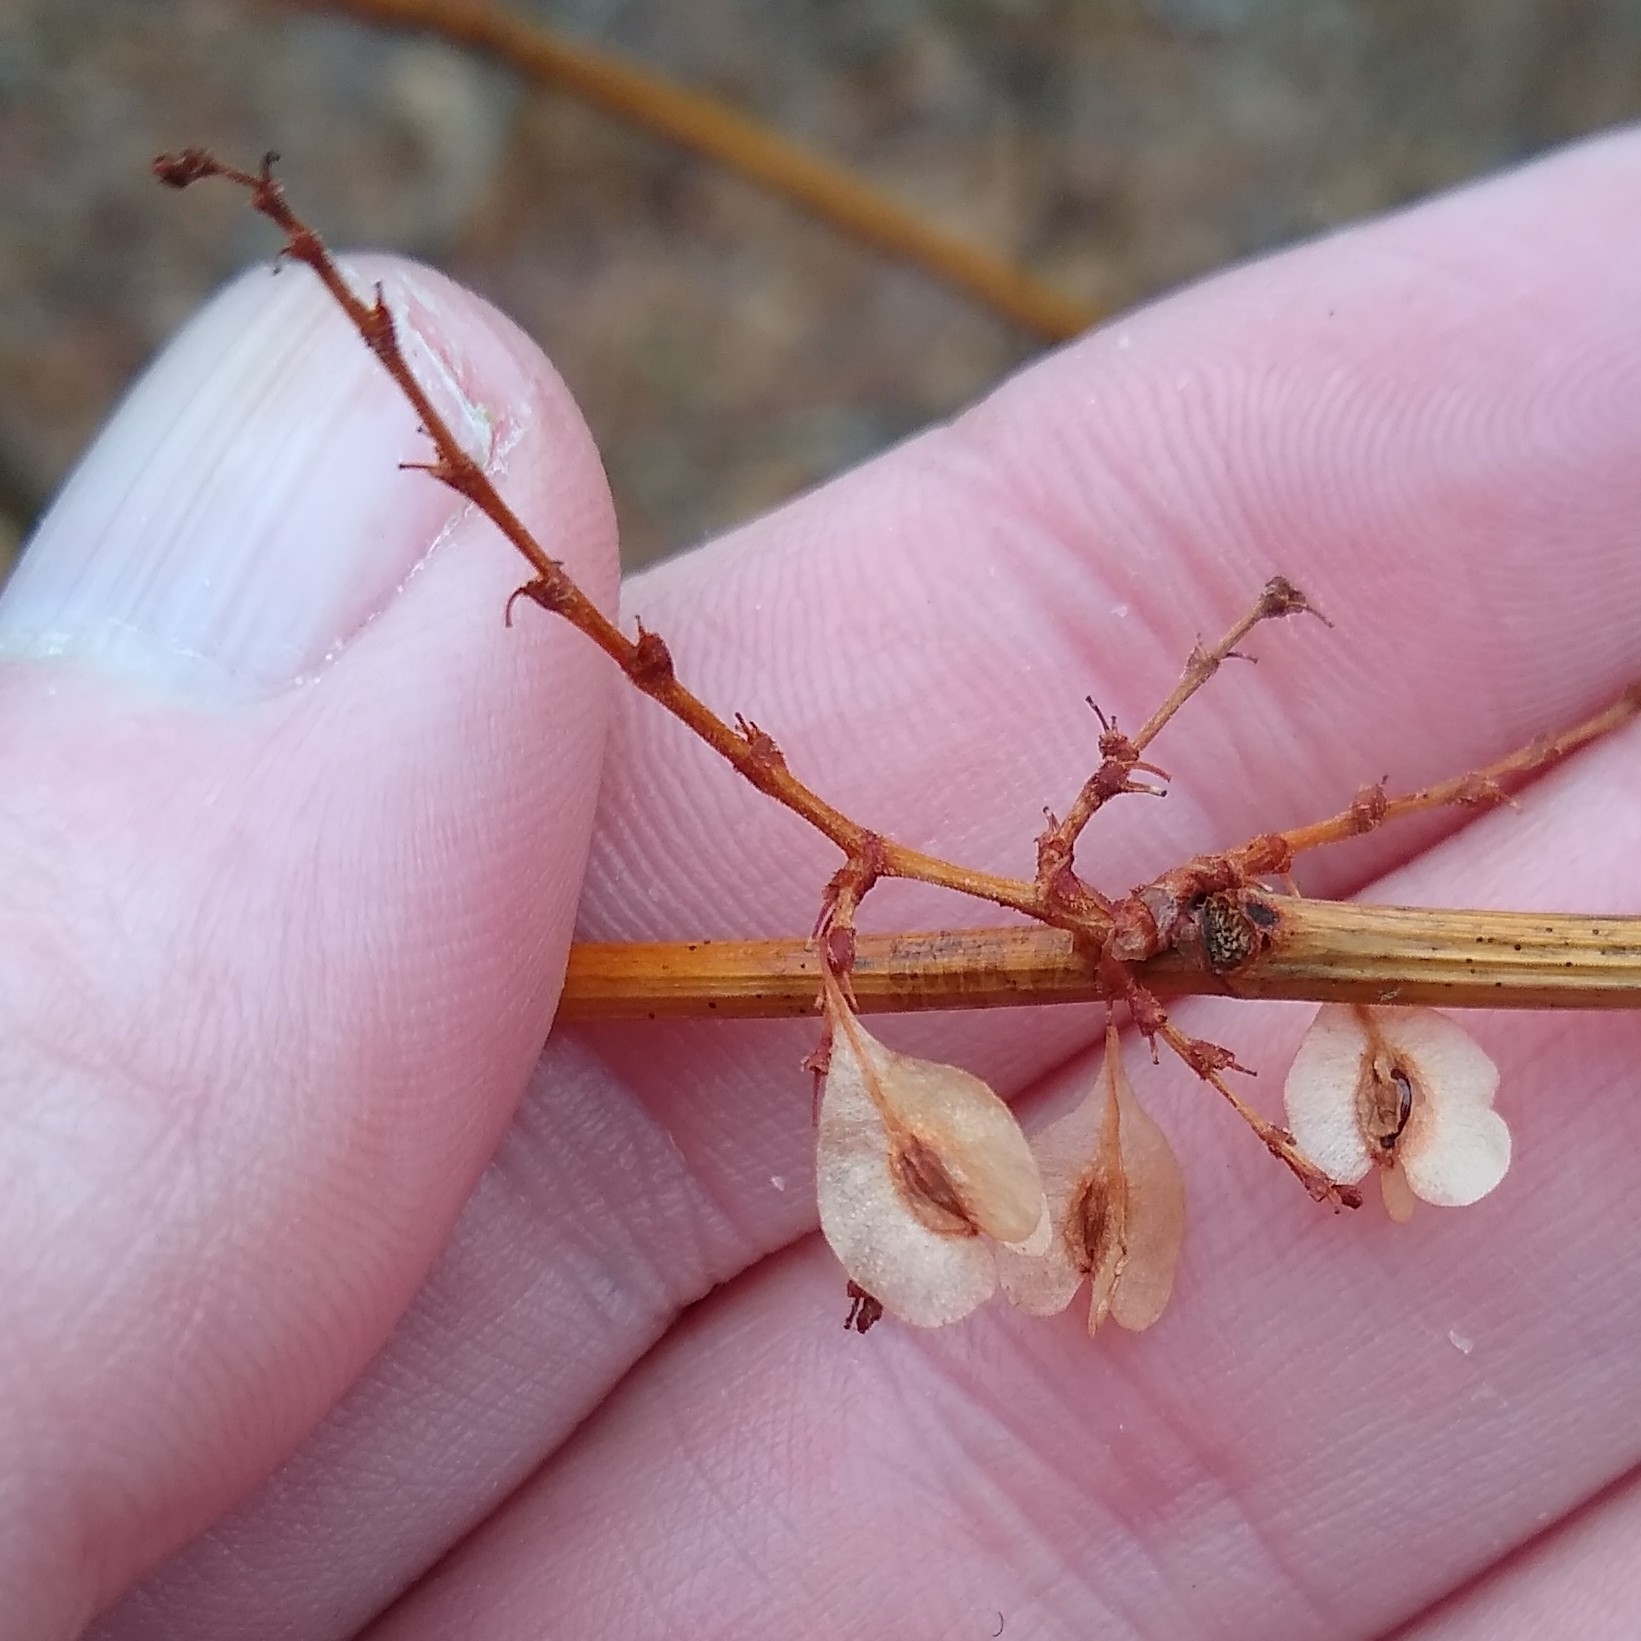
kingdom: Plantae
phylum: Tracheophyta
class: Magnoliopsida
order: Caryophyllales
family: Polygonaceae
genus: Reynoutria
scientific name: Reynoutria japonica
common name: Japanese knotweed
